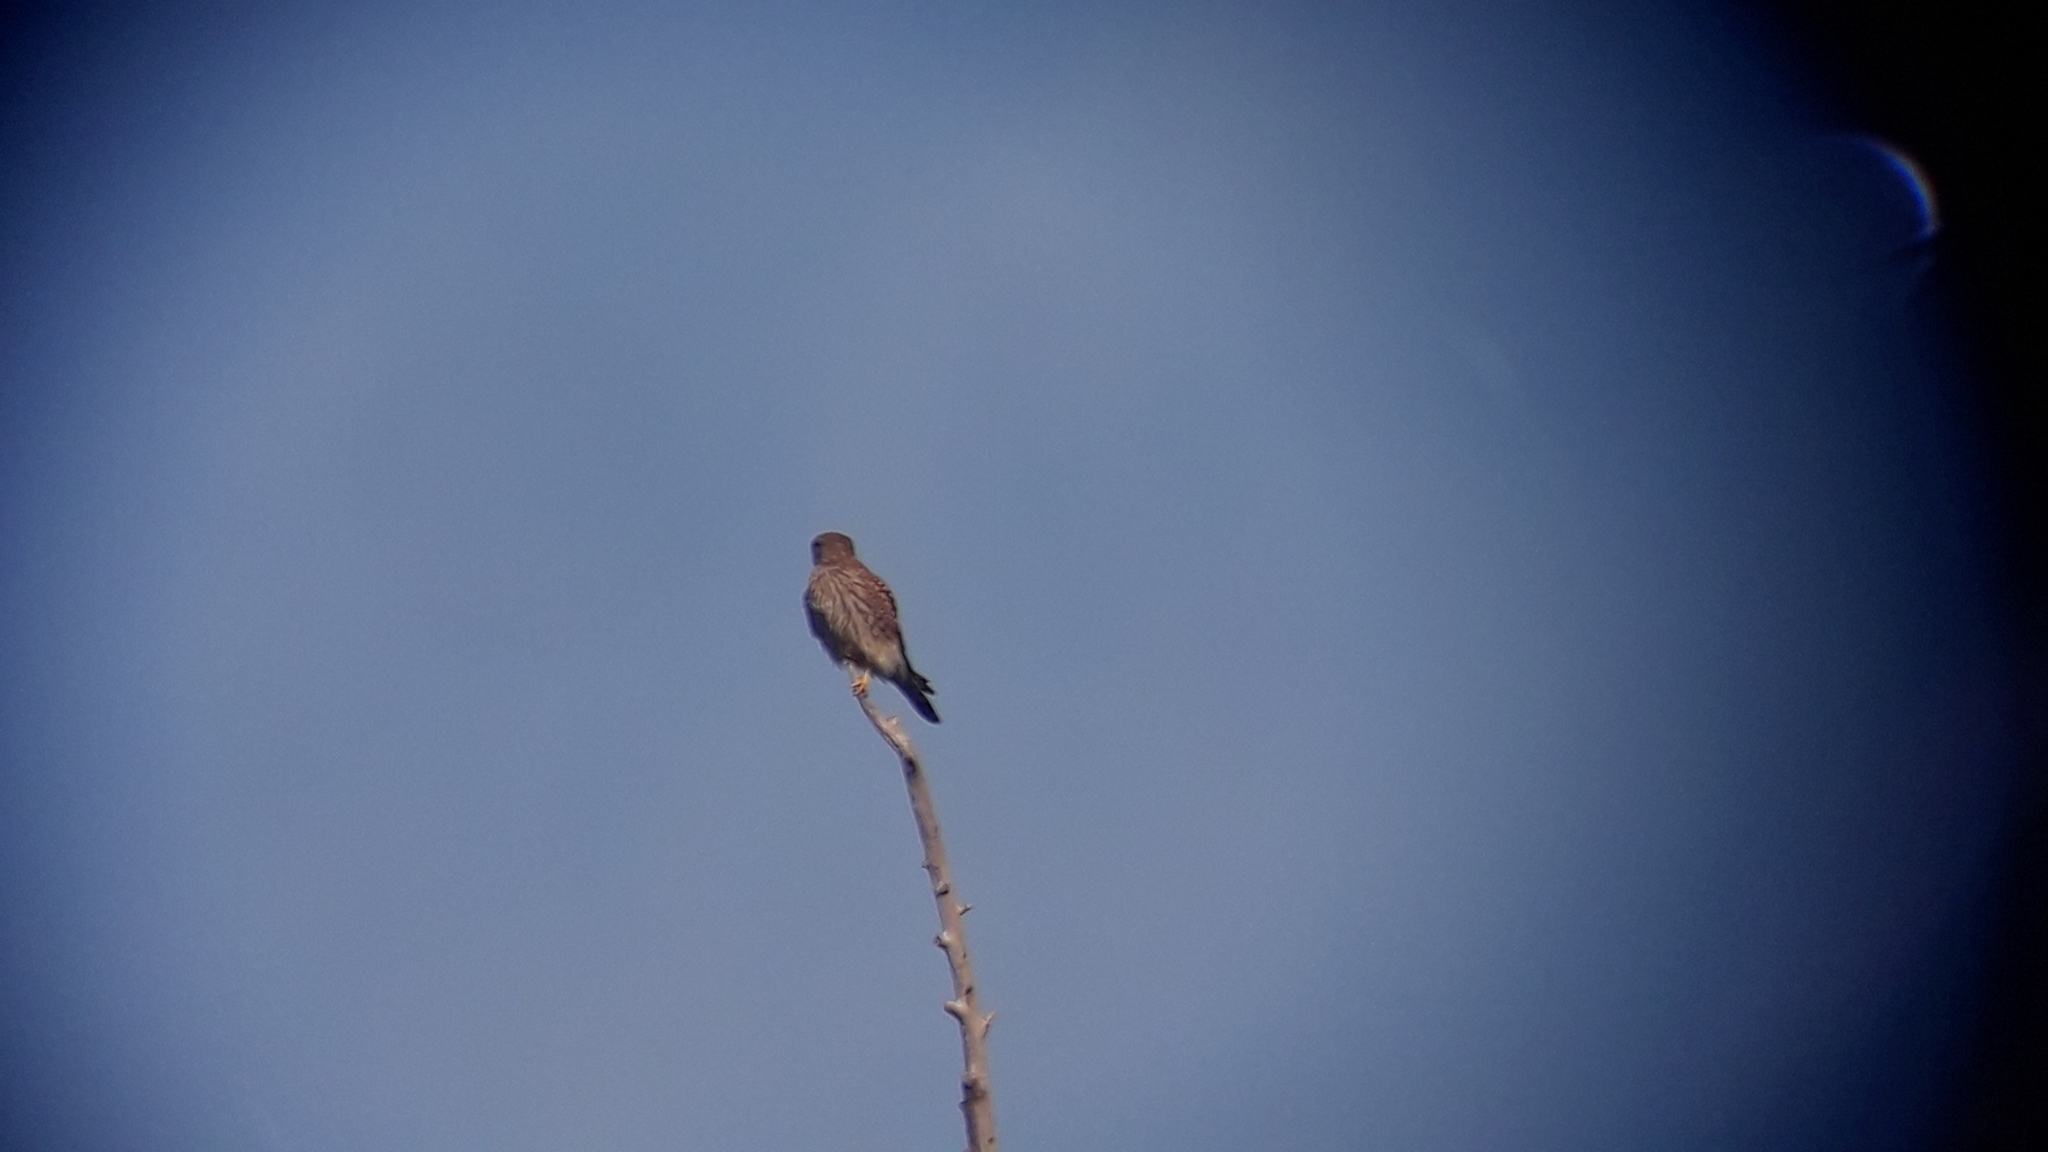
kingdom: Animalia
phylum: Chordata
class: Aves
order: Falconiformes
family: Falconidae
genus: Falco
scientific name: Falco tinnunculus
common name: Common kestrel
